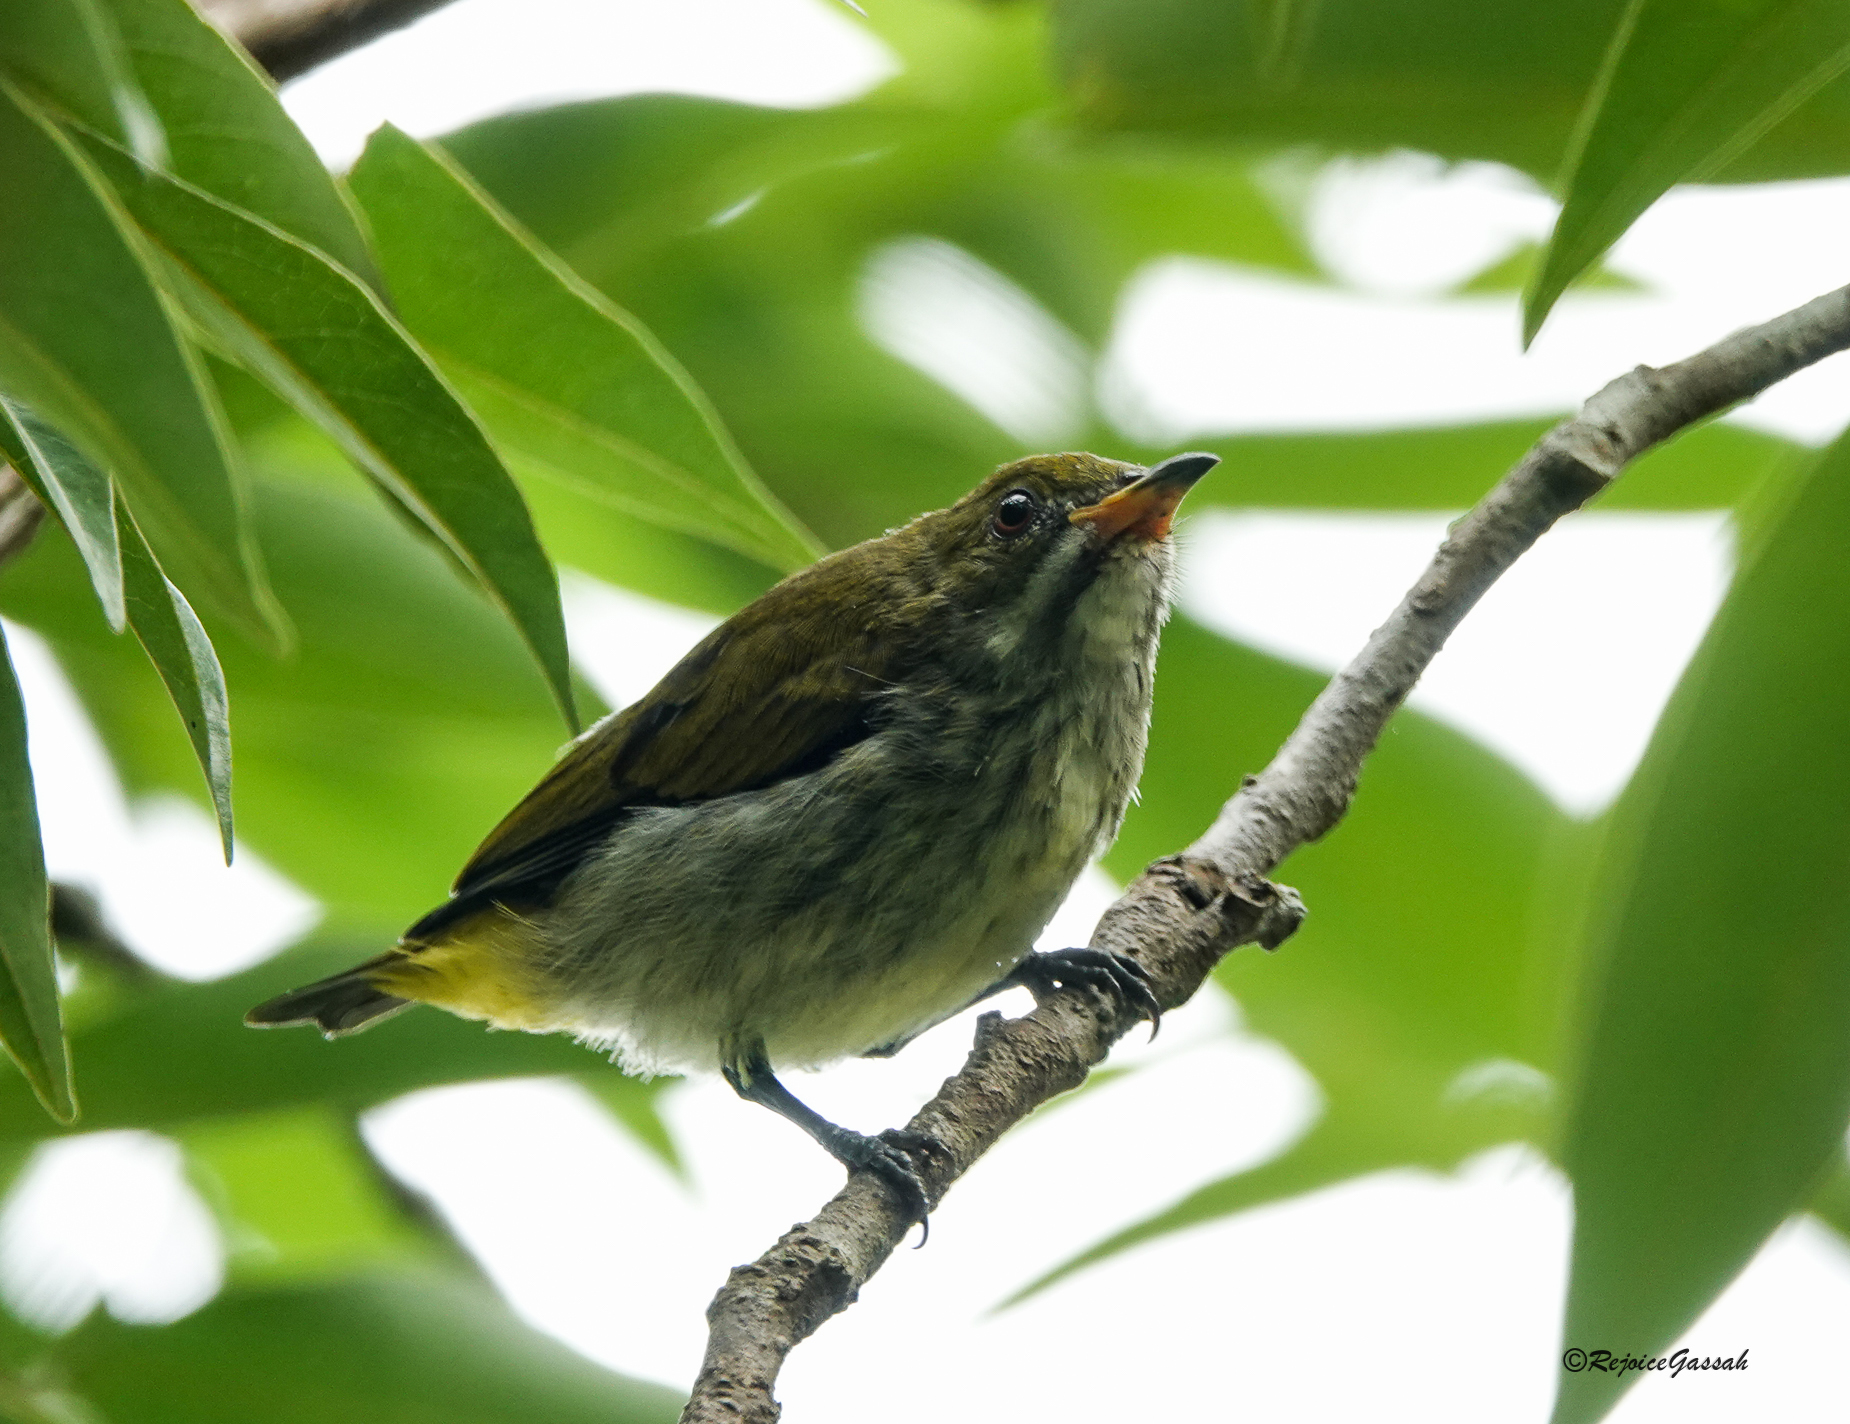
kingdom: Animalia
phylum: Chordata
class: Aves
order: Passeriformes
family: Dicaeidae
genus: Dicaeum
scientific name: Dicaeum chrysorrheum
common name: Yellow-vented flowerpecker
